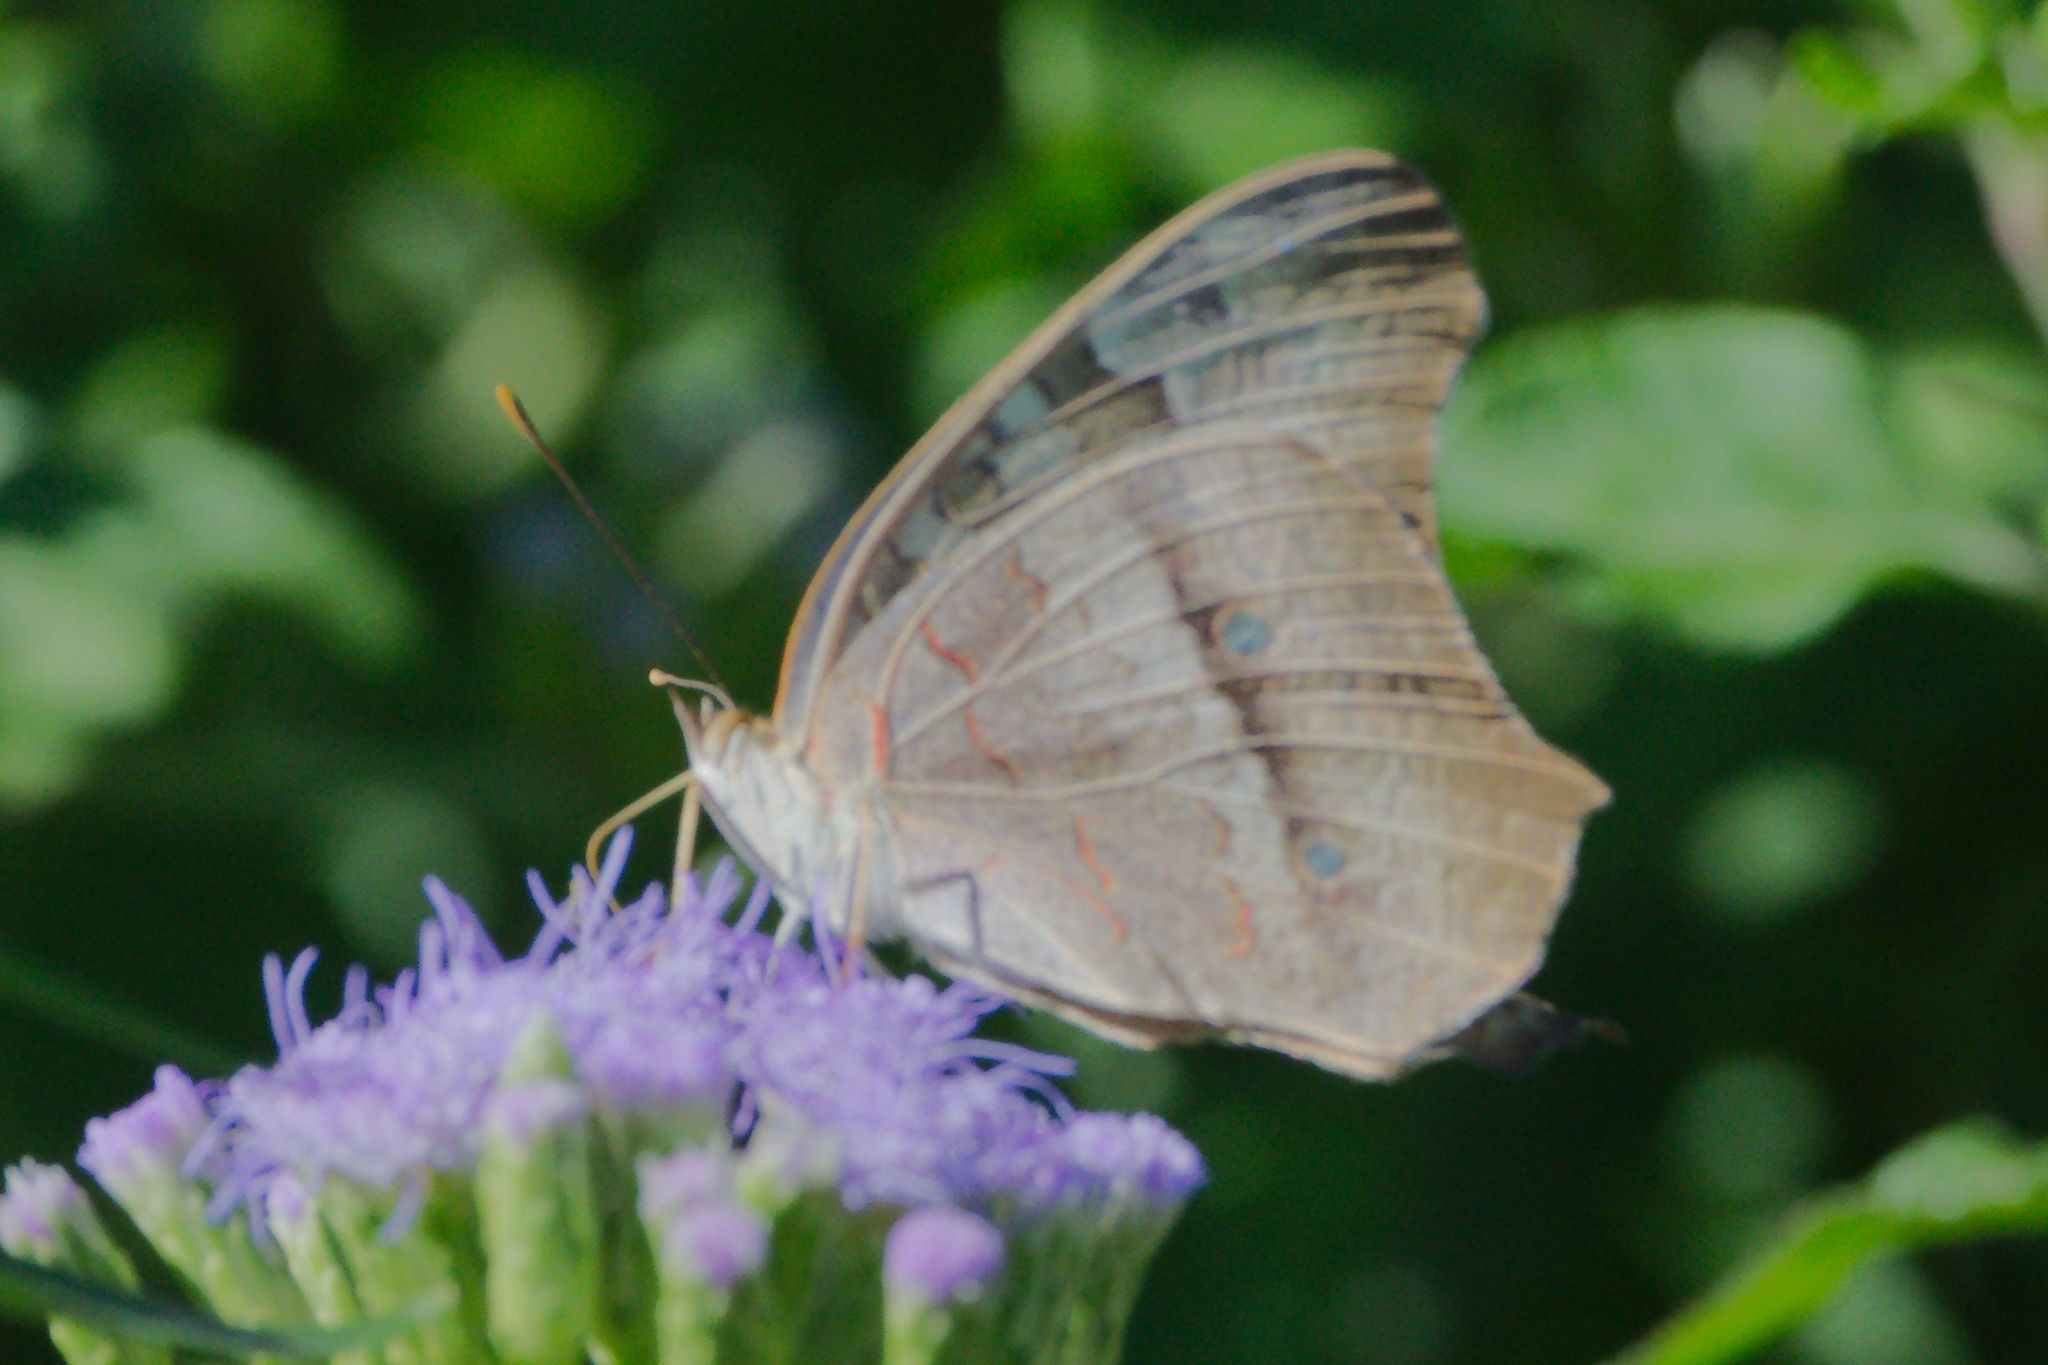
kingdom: Animalia
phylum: Arthropoda
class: Insecta
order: Lepidoptera
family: Nymphalidae
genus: Anartia
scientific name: Anartia jatrophae
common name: White peacock
